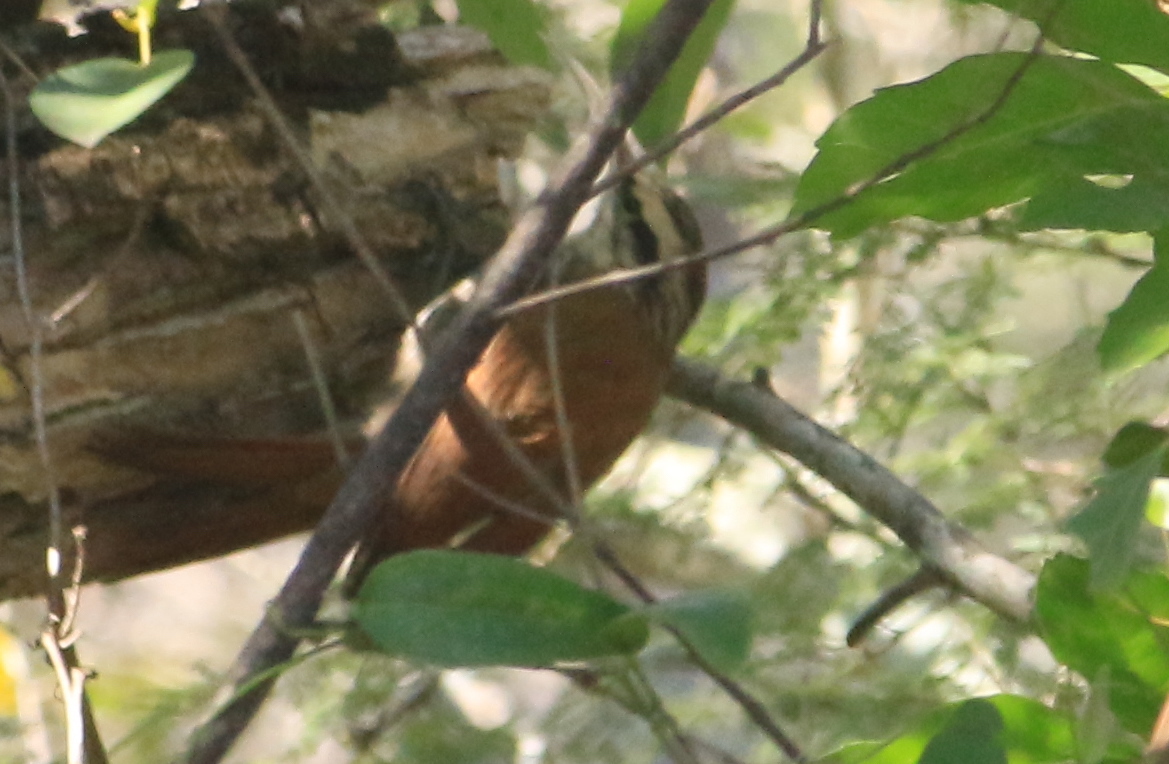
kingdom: Animalia
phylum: Chordata
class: Aves
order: Passeriformes
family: Furnariidae
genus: Lepidocolaptes
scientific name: Lepidocolaptes angustirostris
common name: Narrow-billed woodcreeper
